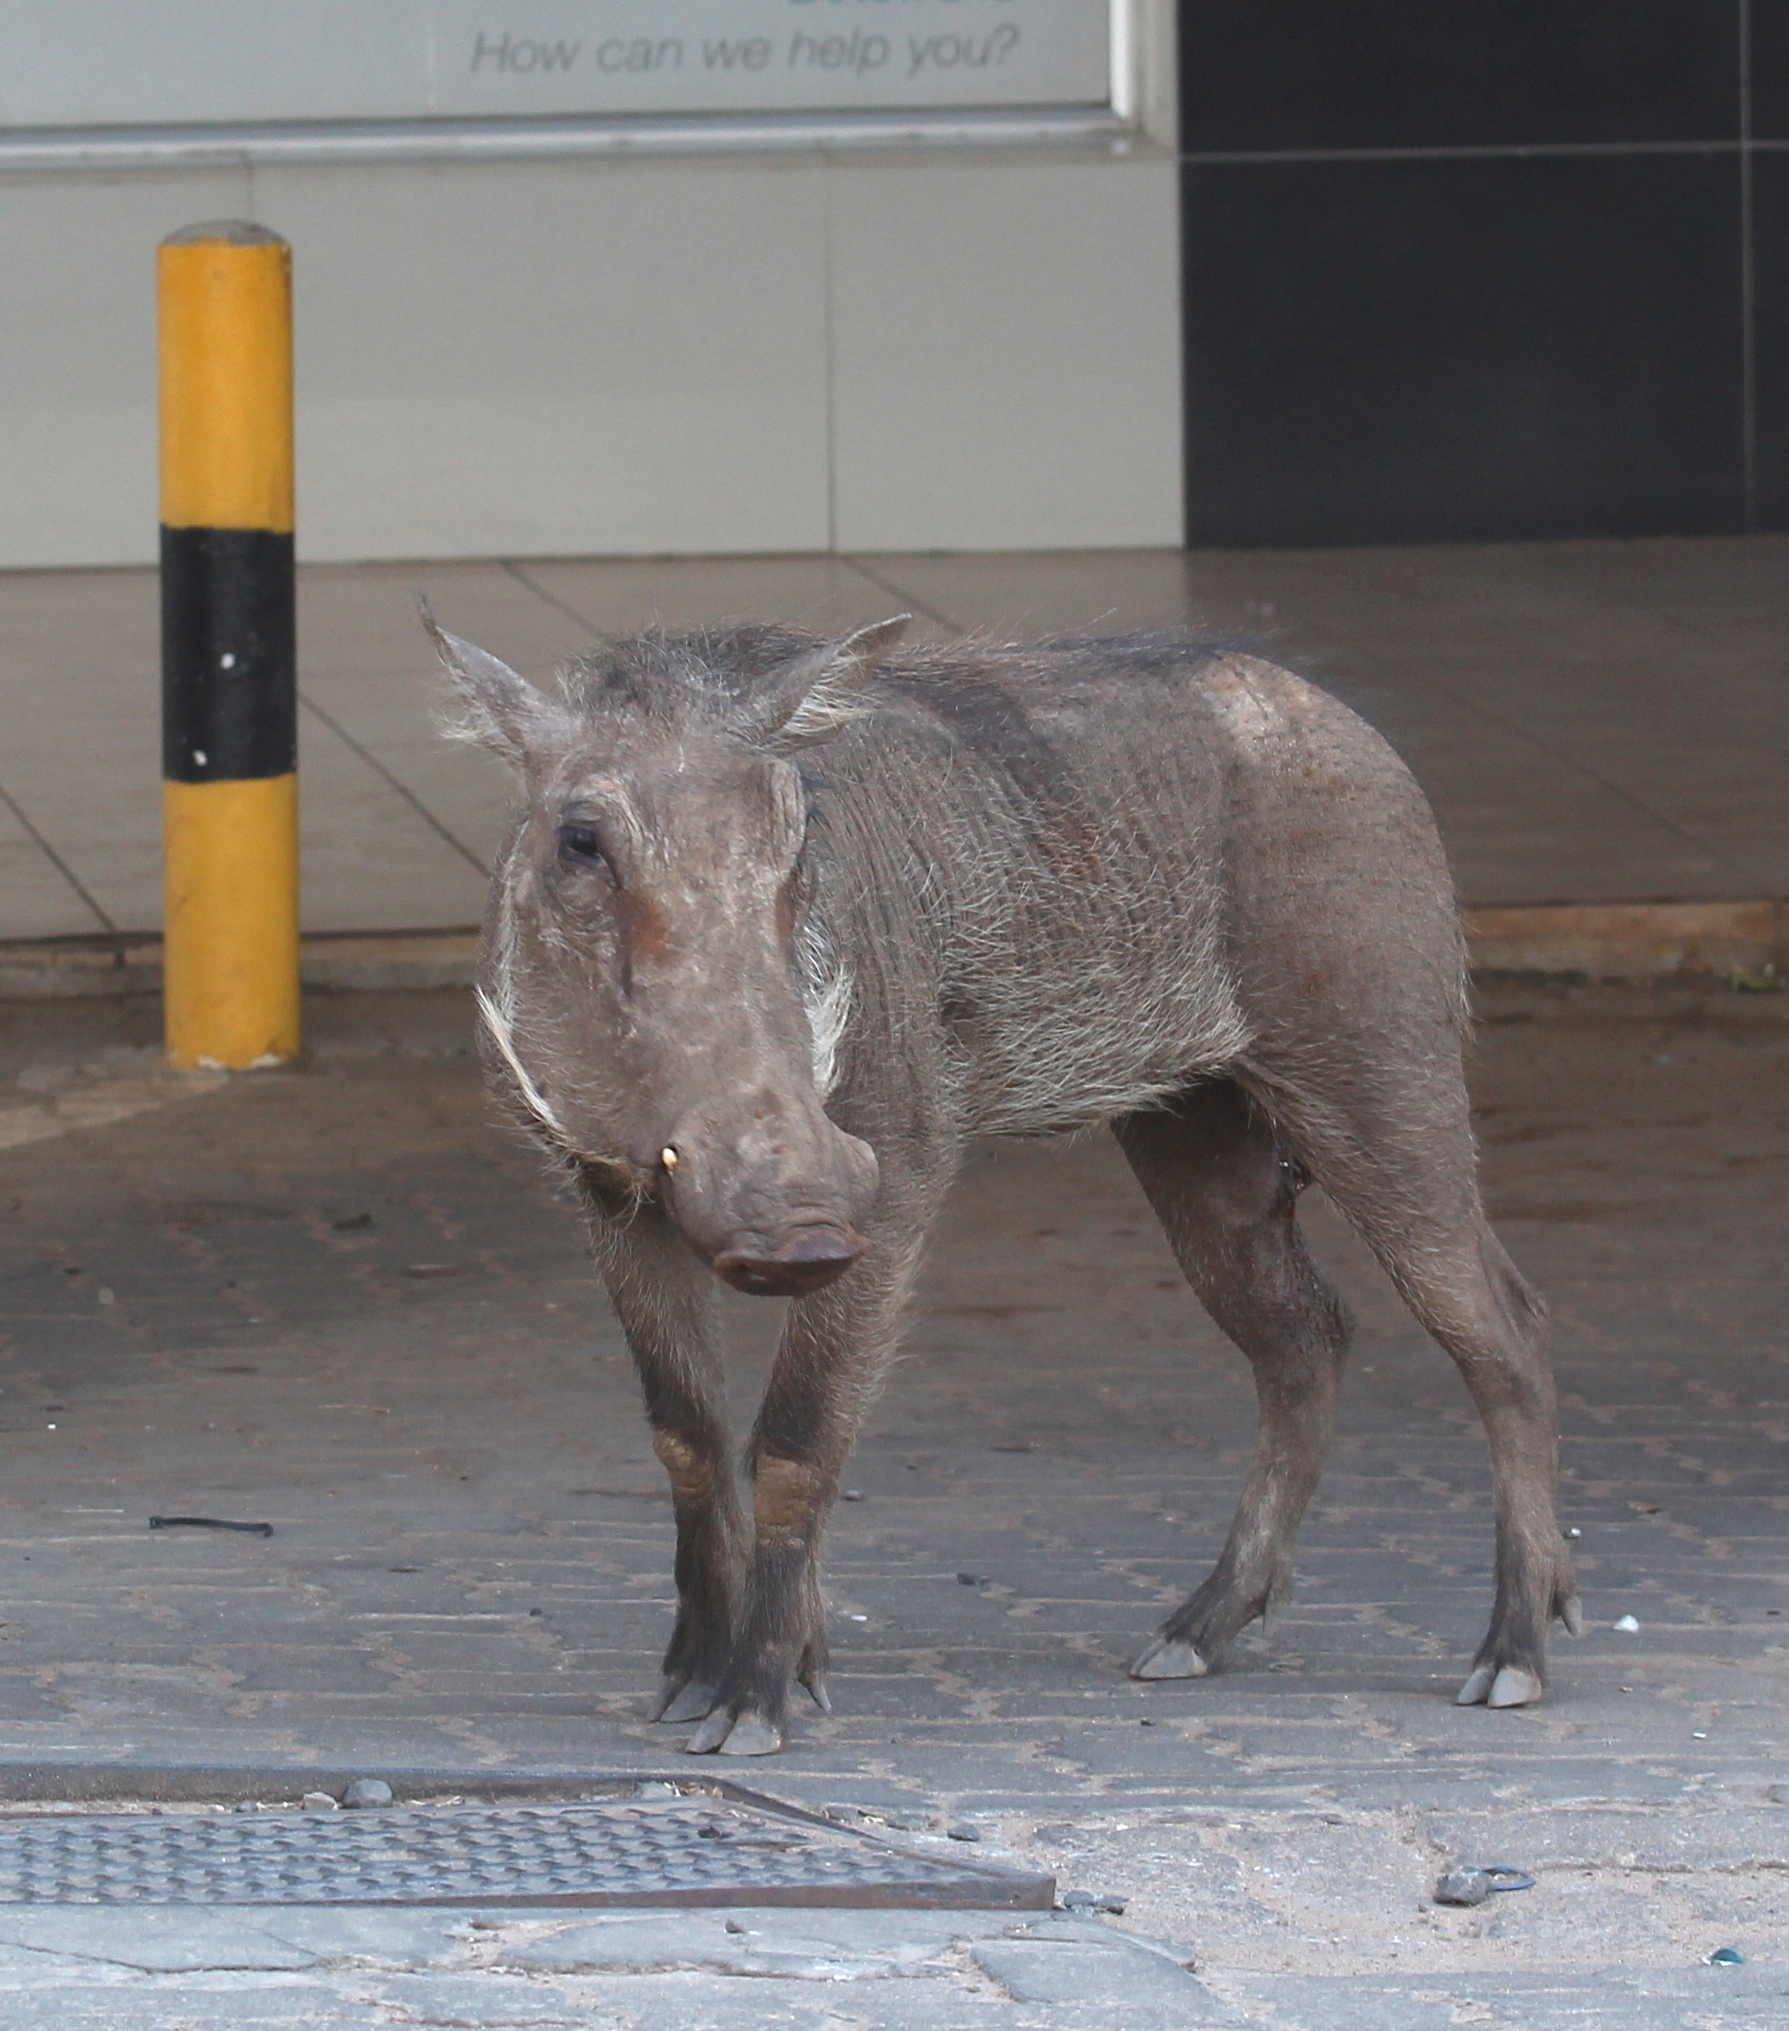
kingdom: Animalia
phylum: Chordata
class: Mammalia
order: Artiodactyla
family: Suidae
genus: Phacochoerus
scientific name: Phacochoerus africanus
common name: Common warthog
